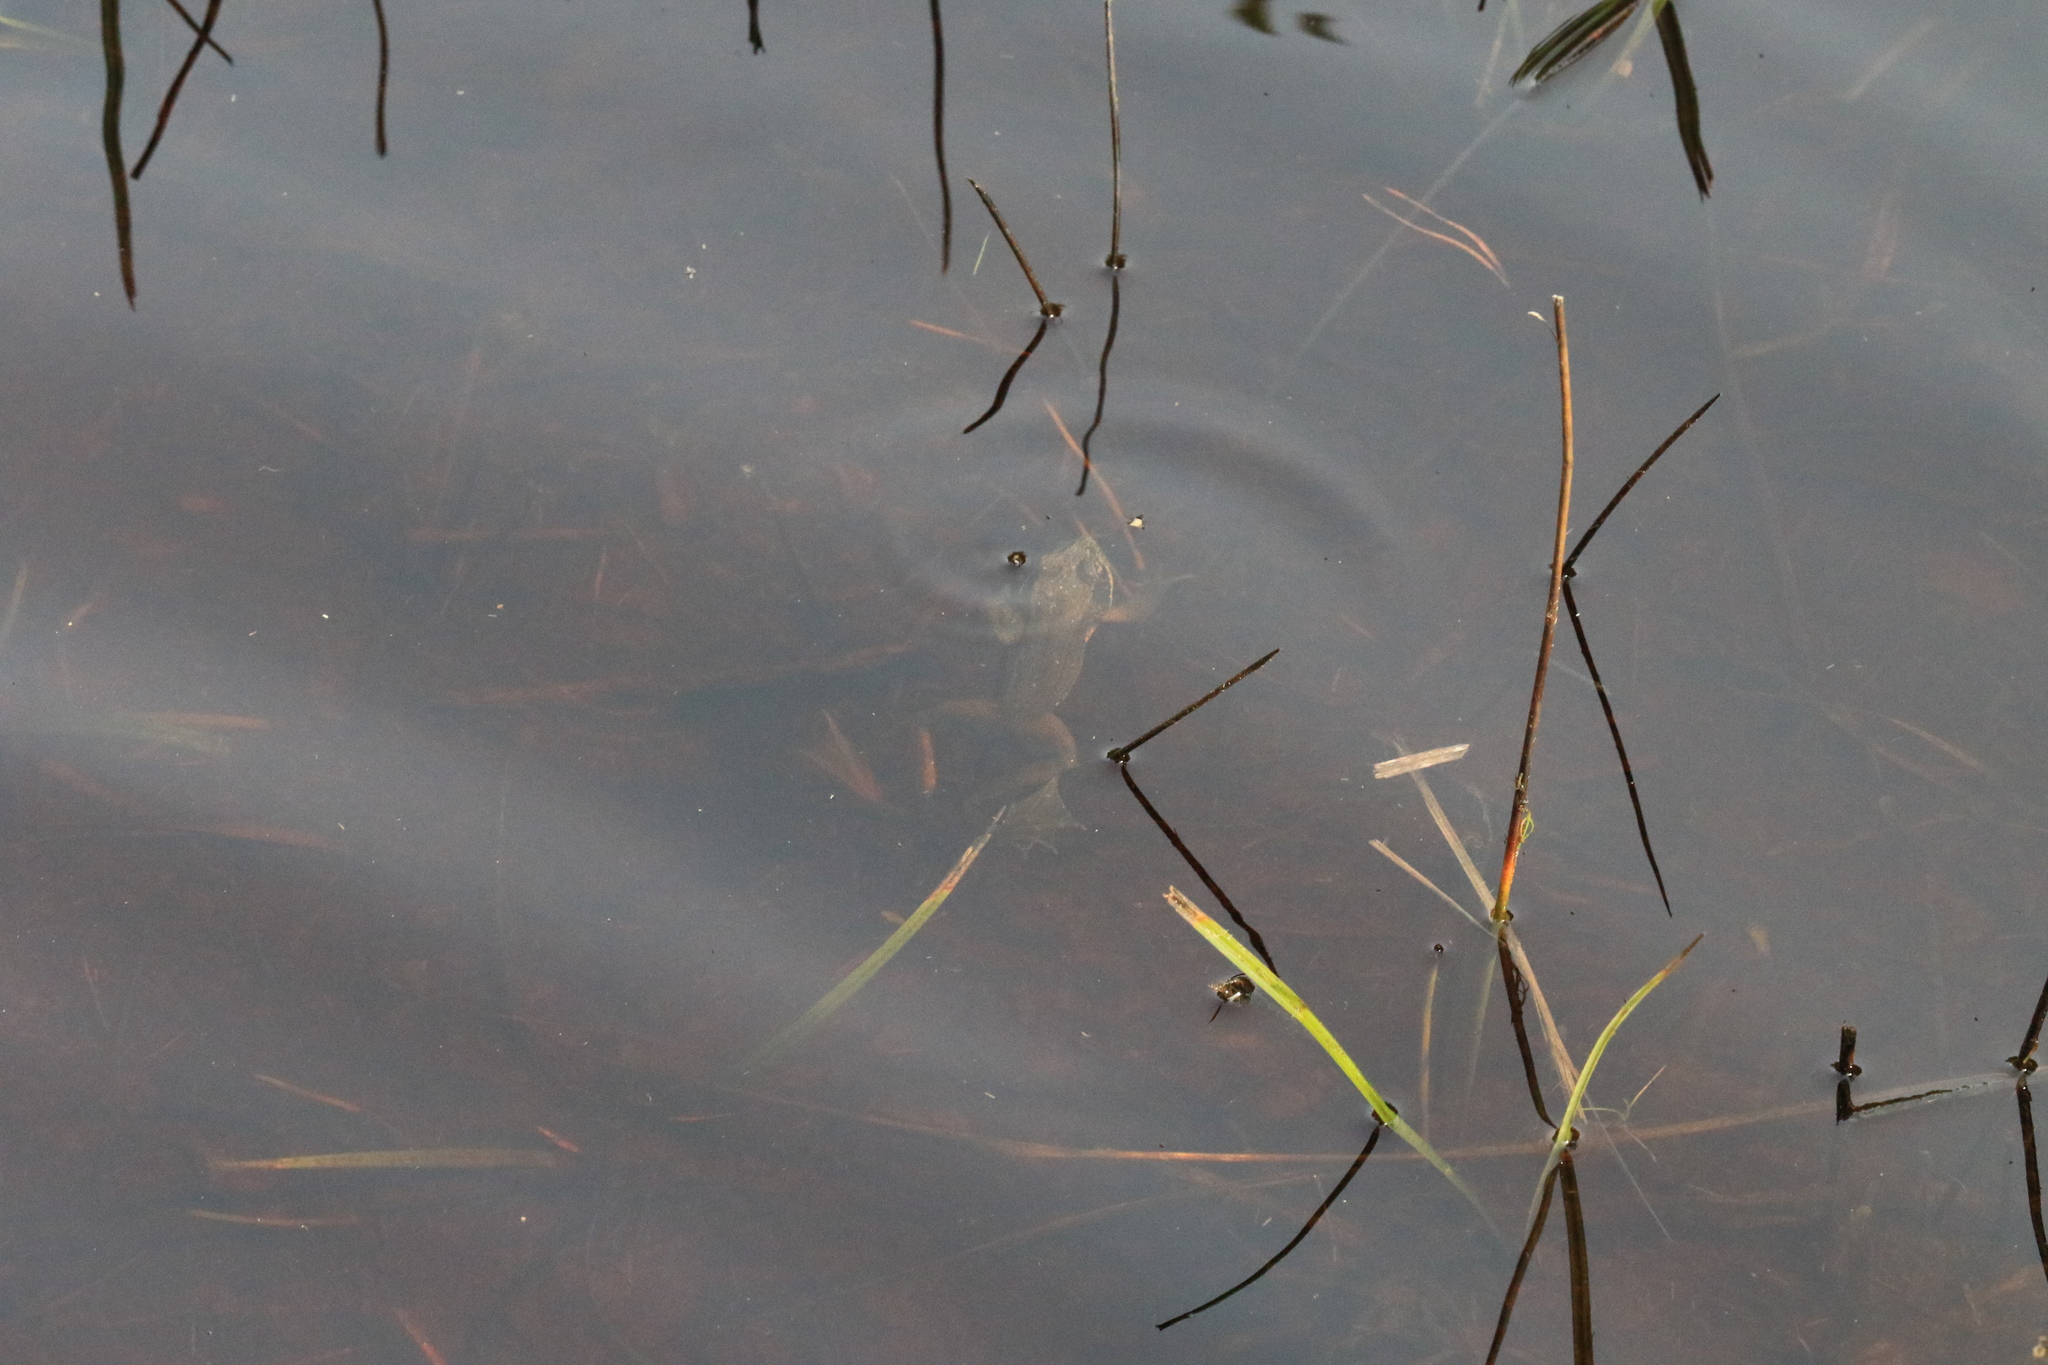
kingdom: Animalia
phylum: Chordata
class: Amphibia
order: Anura
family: Ranidae
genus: Rana
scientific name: Rana aurora
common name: Red-legged frog
